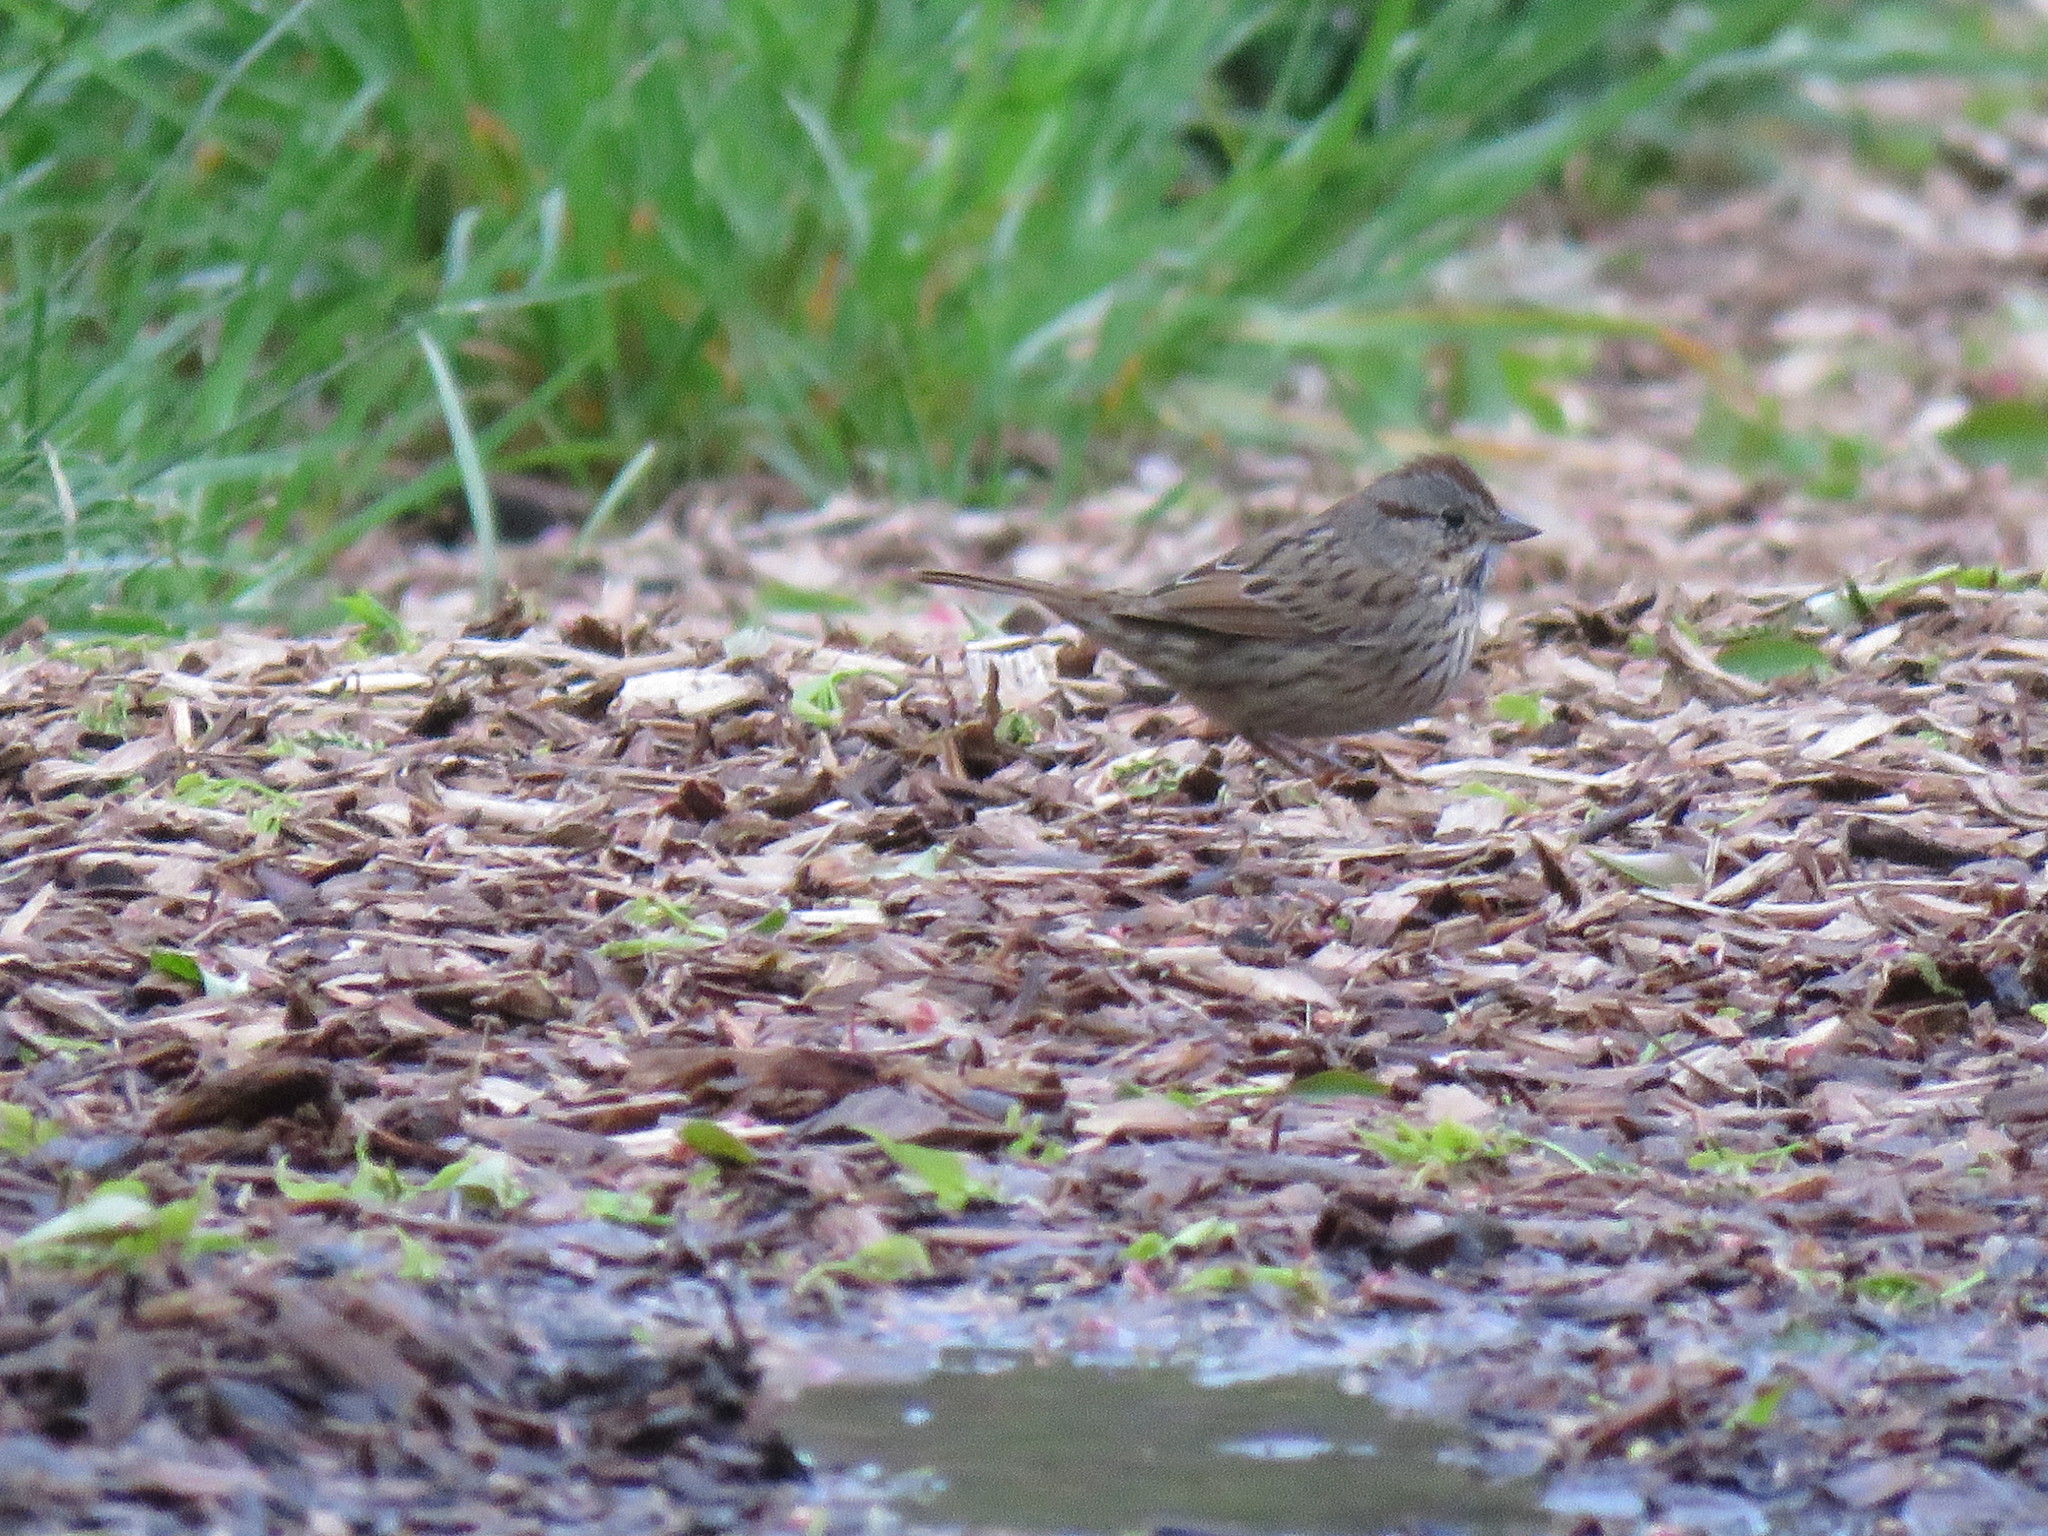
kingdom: Animalia
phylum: Chordata
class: Aves
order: Passeriformes
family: Passerellidae
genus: Melospiza
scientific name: Melospiza lincolnii
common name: Lincoln's sparrow
